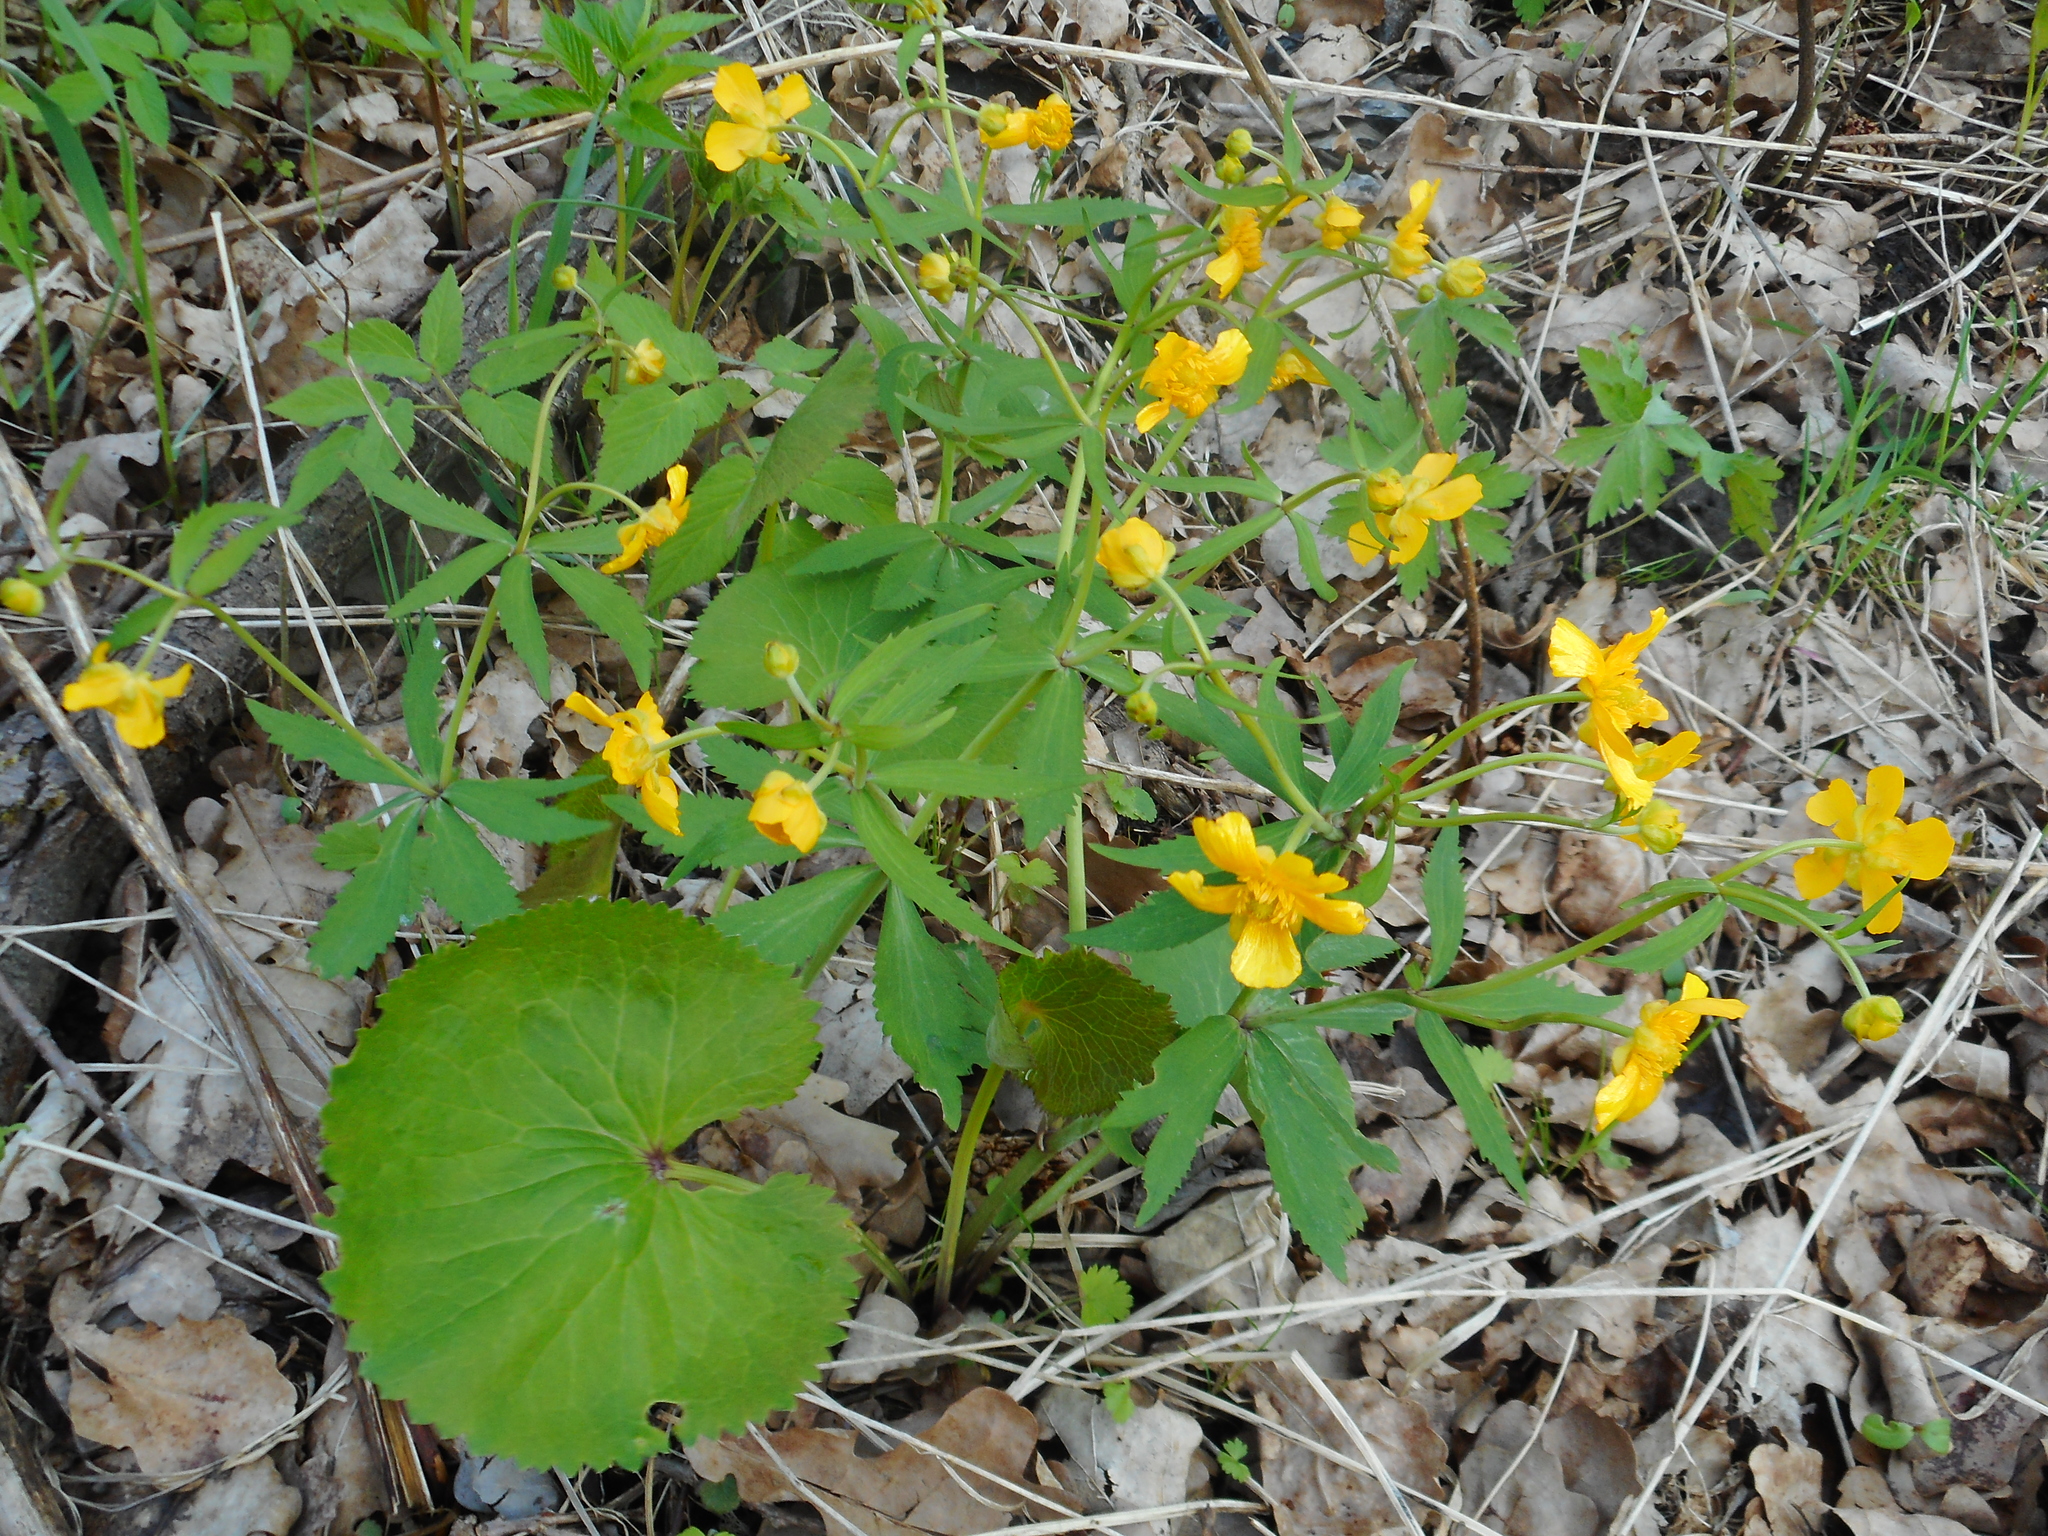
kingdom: Plantae
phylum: Tracheophyta
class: Magnoliopsida
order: Ranunculales
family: Ranunculaceae
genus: Ranunculus
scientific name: Ranunculus cassubicus
